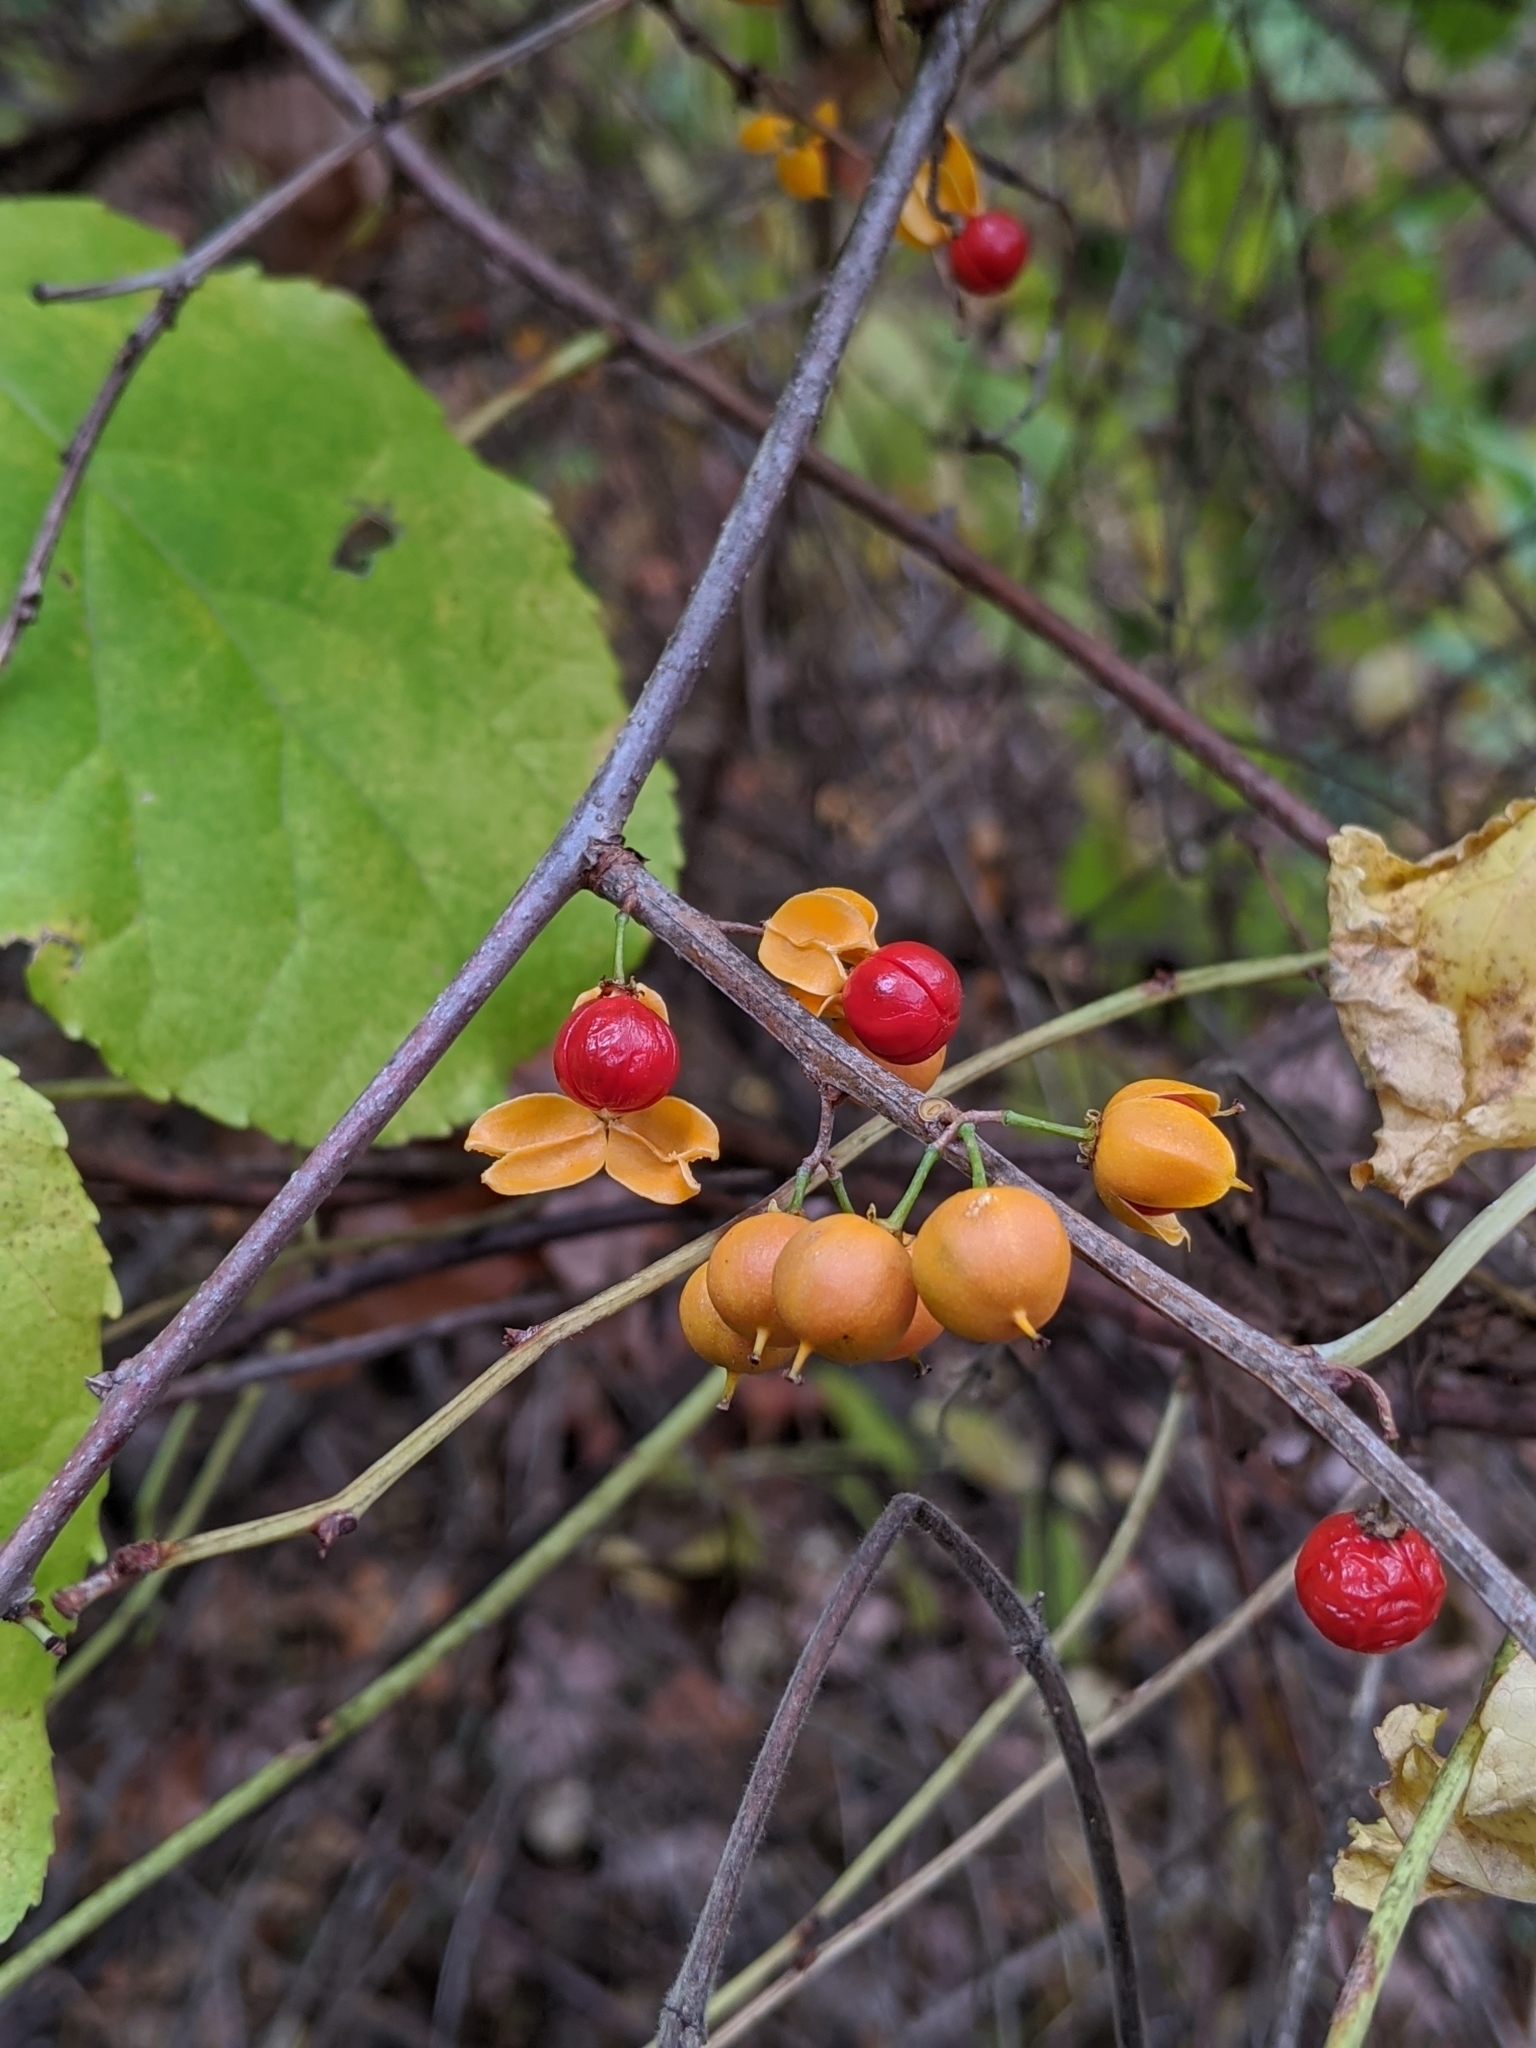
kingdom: Plantae
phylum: Tracheophyta
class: Magnoliopsida
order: Celastrales
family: Celastraceae
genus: Celastrus
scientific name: Celastrus orbiculatus
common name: Oriental bittersweet
